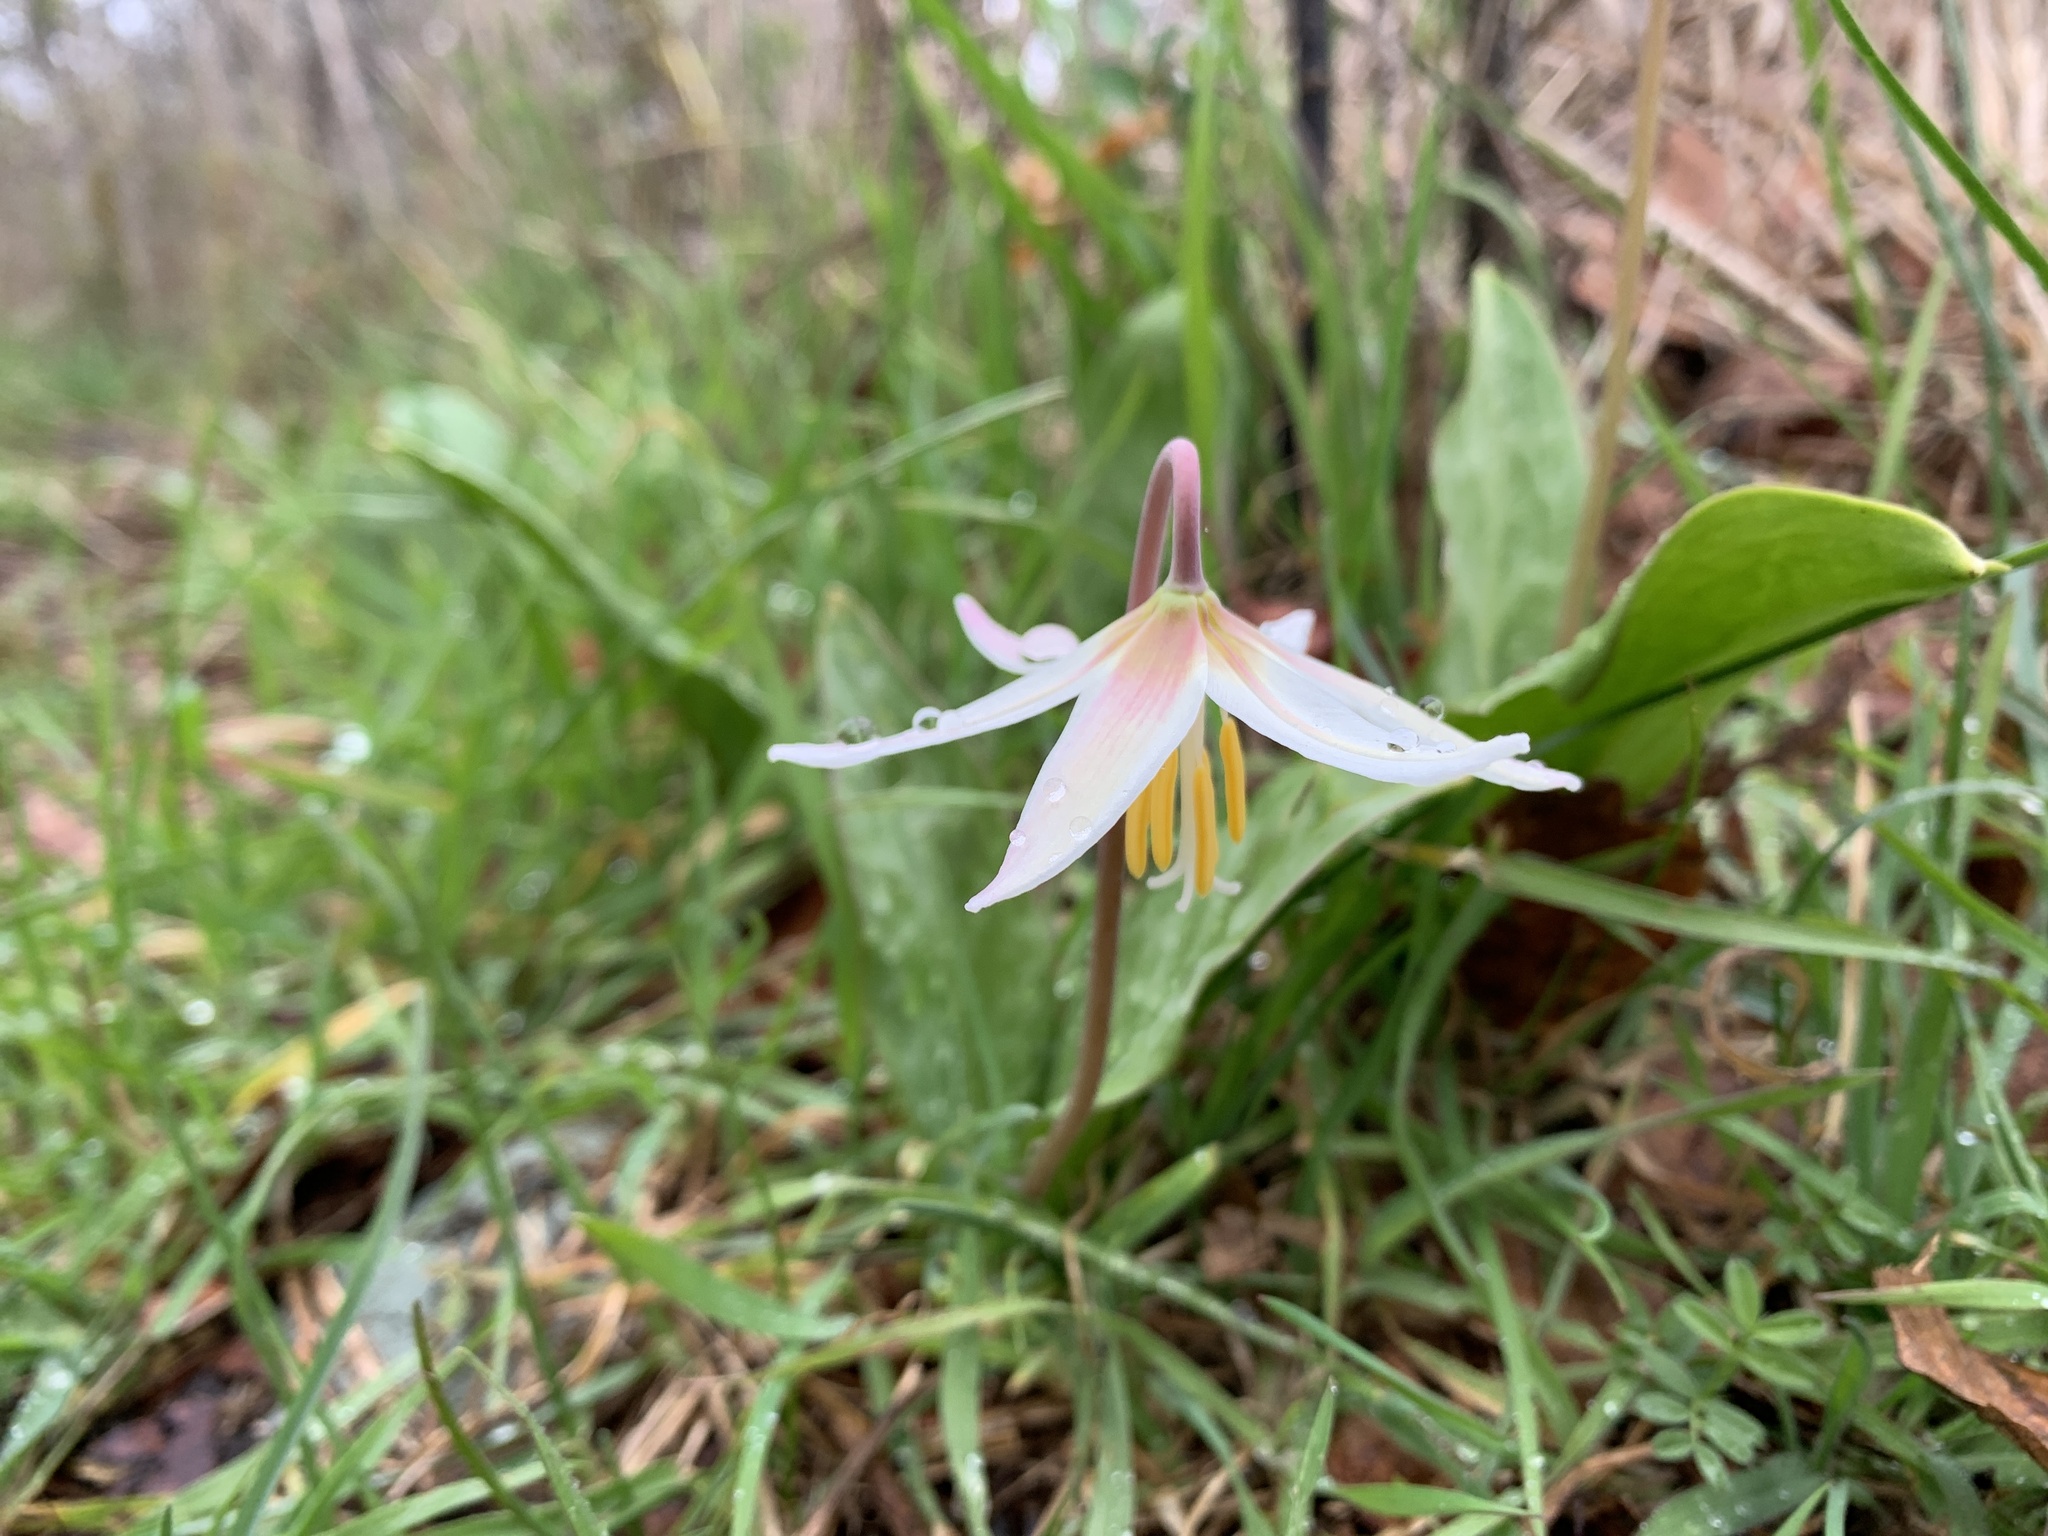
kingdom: Plantae
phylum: Tracheophyta
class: Liliopsida
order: Liliales
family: Liliaceae
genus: Erythronium
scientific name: Erythronium oregonum
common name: Giant adder's-tongue
